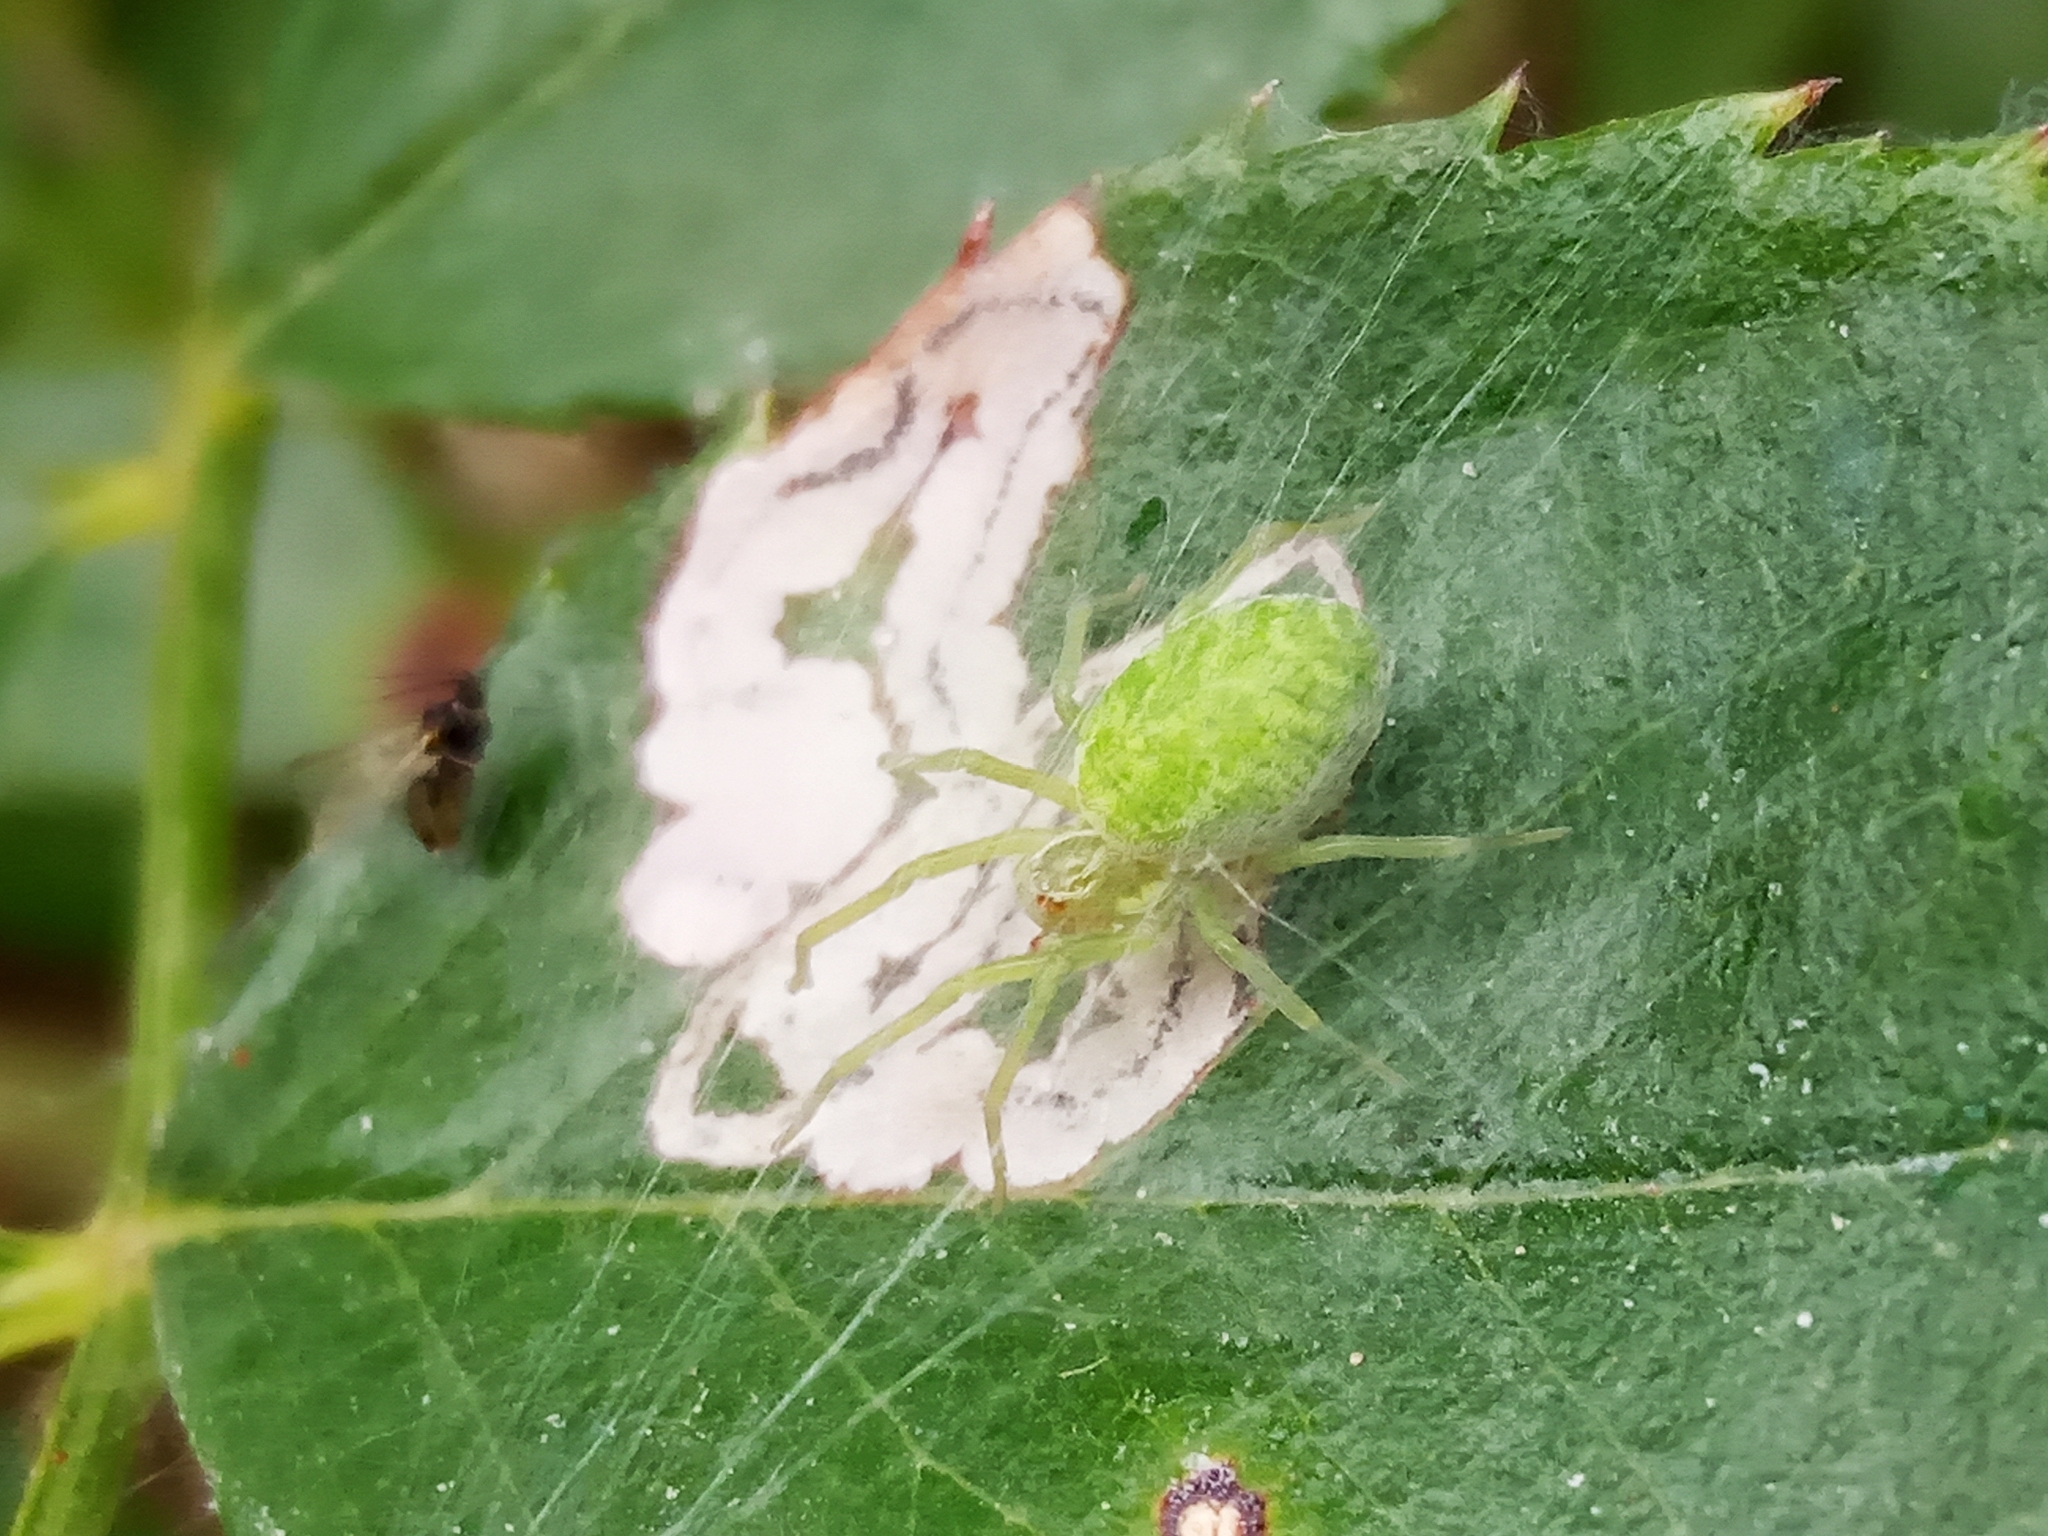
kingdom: Animalia
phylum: Arthropoda
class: Arachnida
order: Araneae
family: Dictynidae
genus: Nigma
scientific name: Nigma walckenaeri
